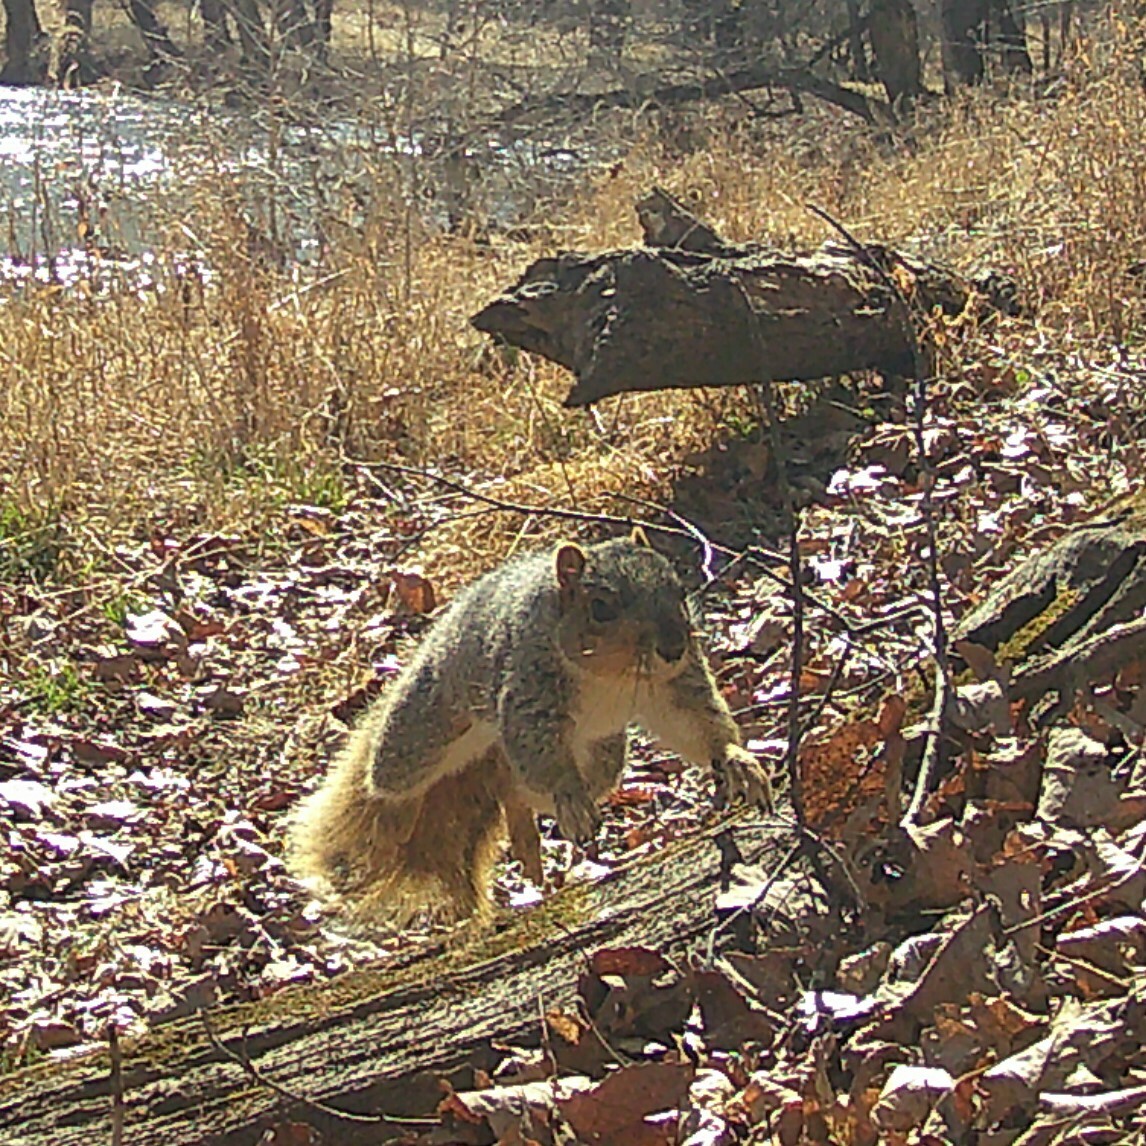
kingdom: Animalia
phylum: Chordata
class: Mammalia
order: Rodentia
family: Sciuridae
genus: Sciurus
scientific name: Sciurus niger
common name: Fox squirrel
